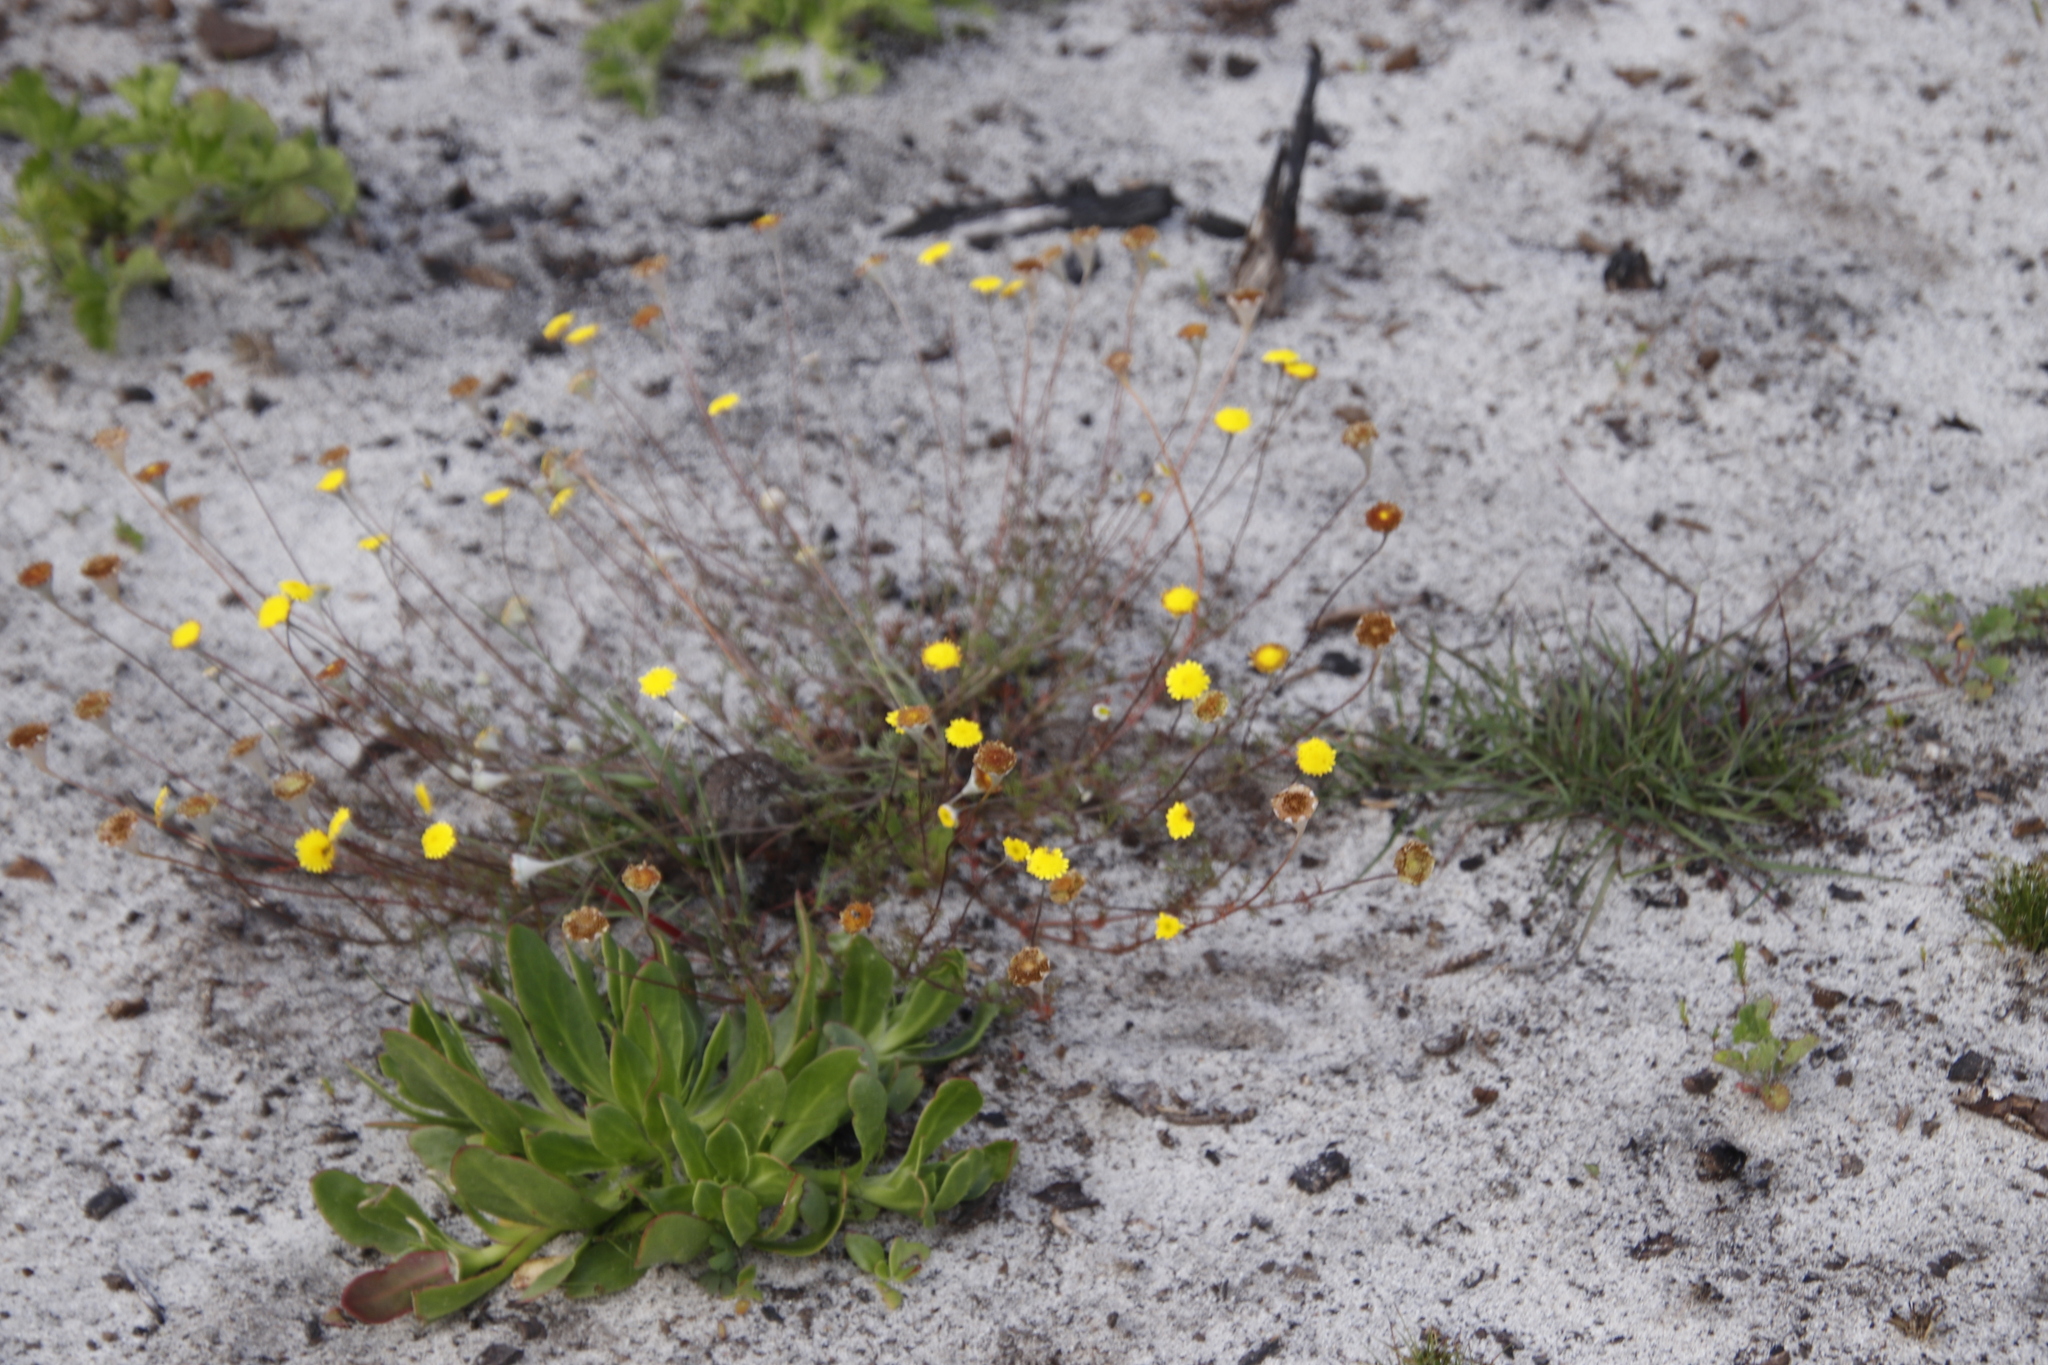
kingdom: Plantae
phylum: Tracheophyta
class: Magnoliopsida
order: Asterales
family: Asteraceae
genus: Cotula
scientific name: Cotula pruinosa
